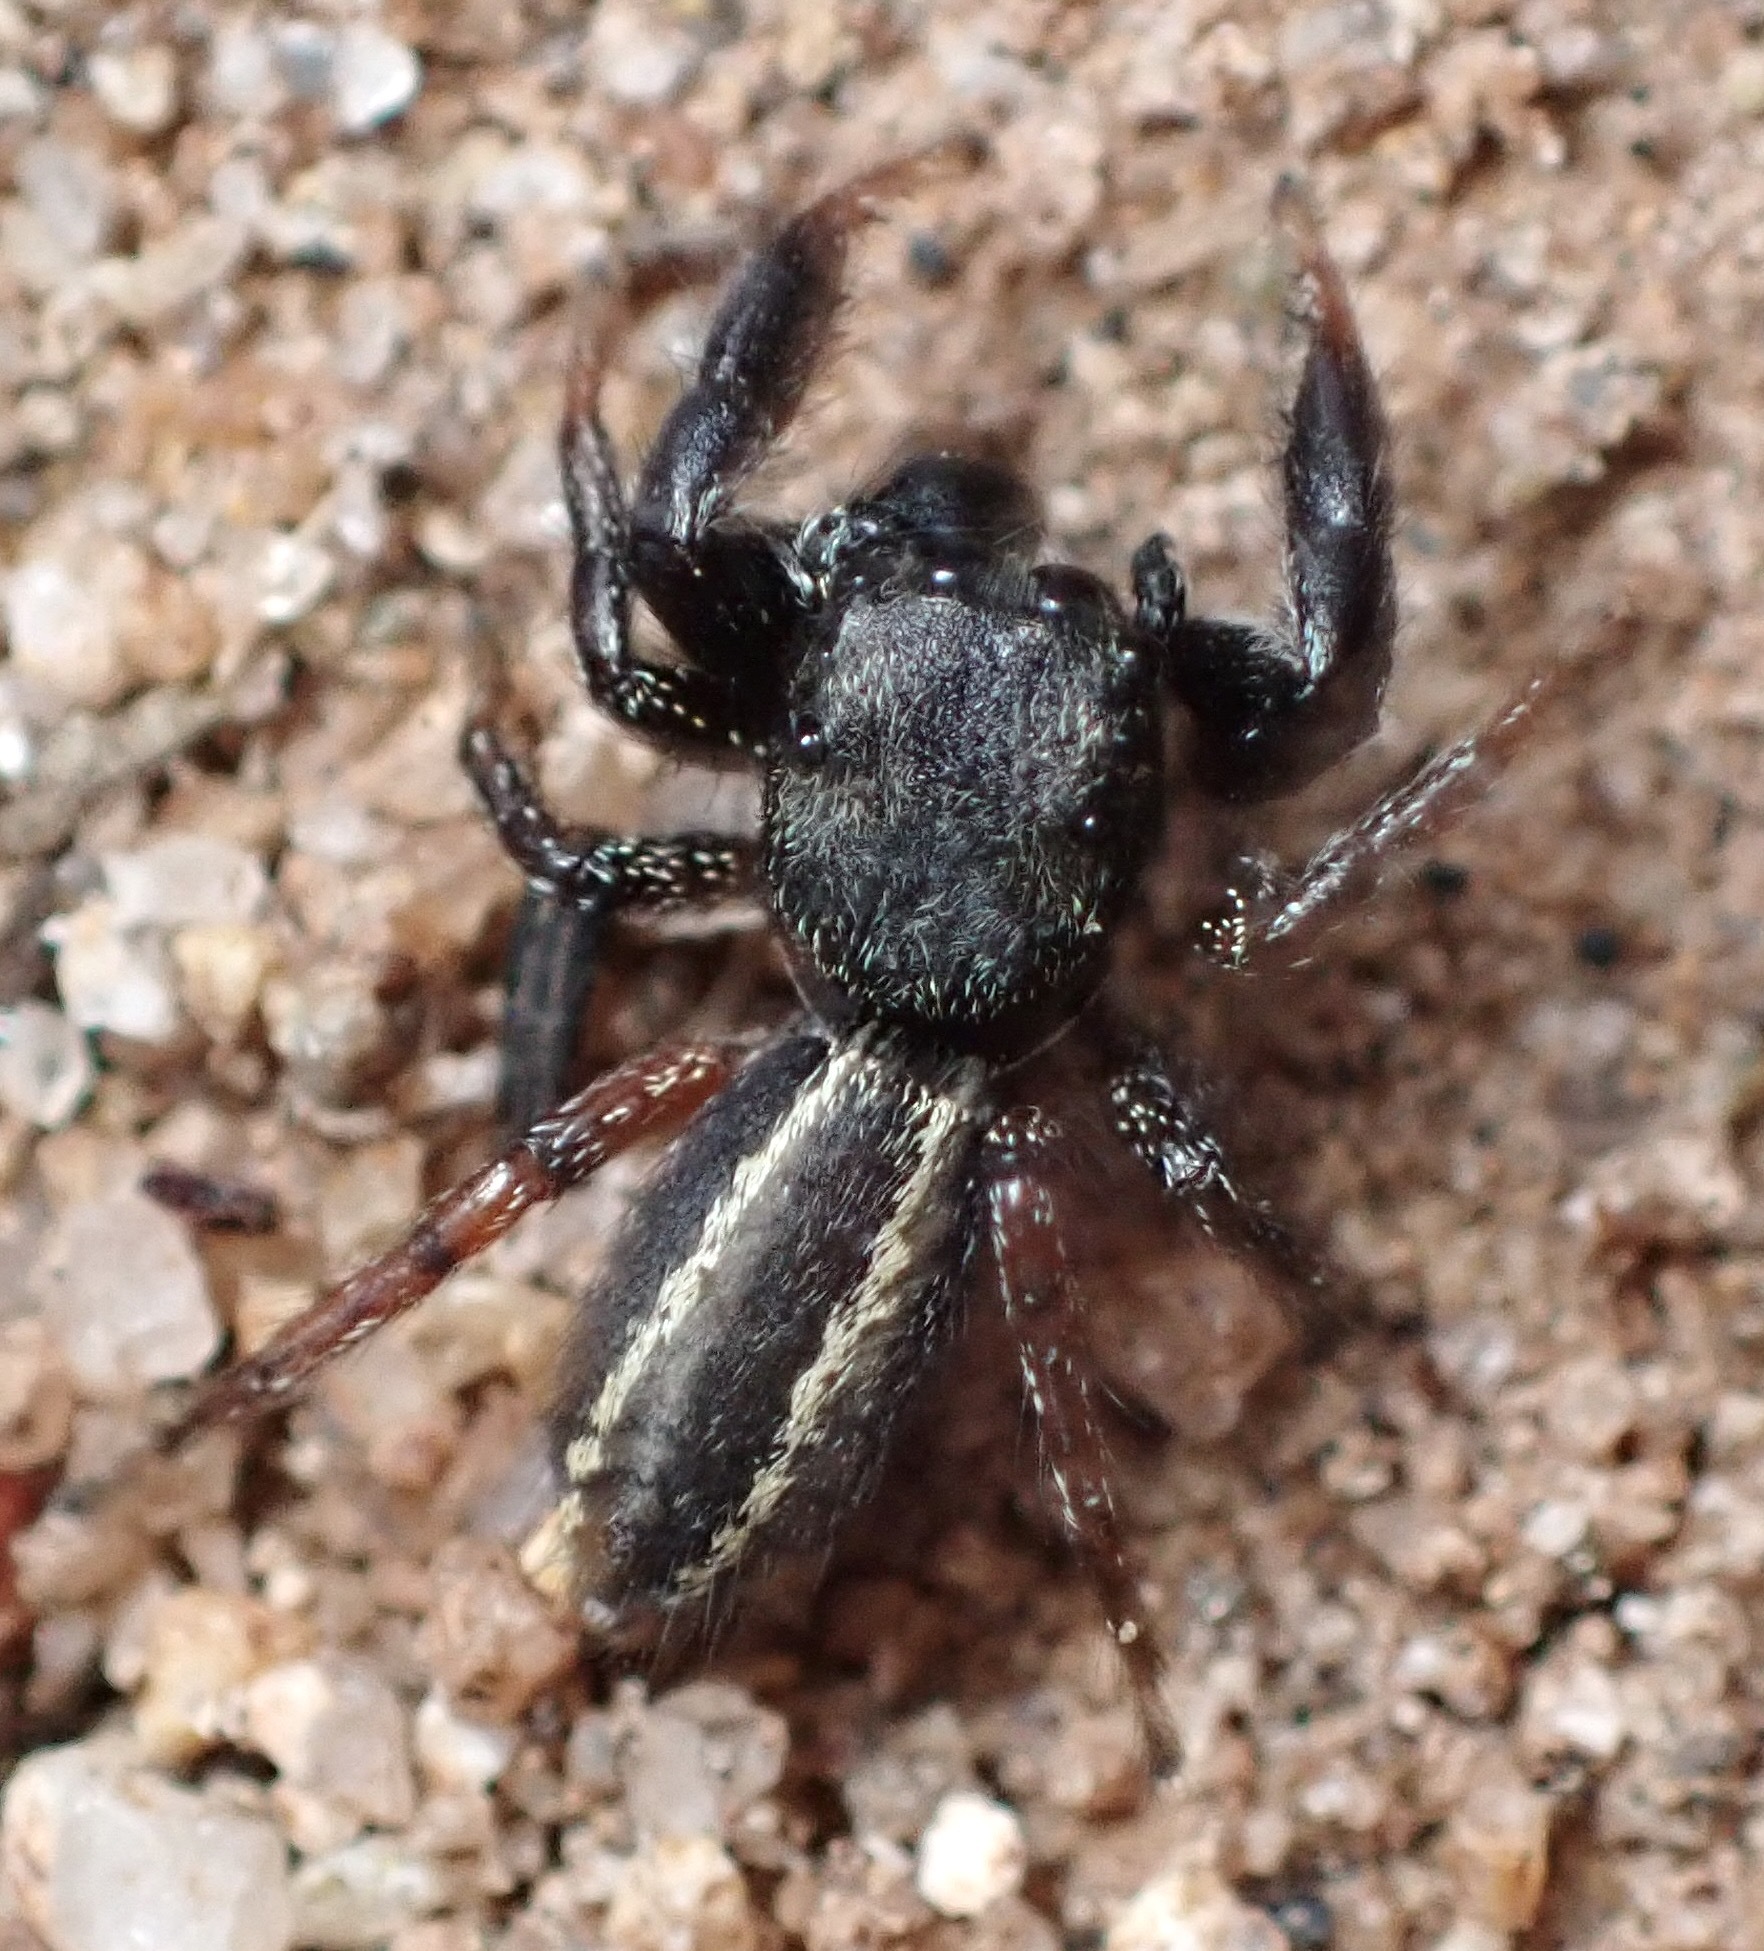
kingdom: Animalia
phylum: Arthropoda
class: Arachnida
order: Araneae
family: Salticidae
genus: Metacyrba
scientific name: Metacyrba taeniola
